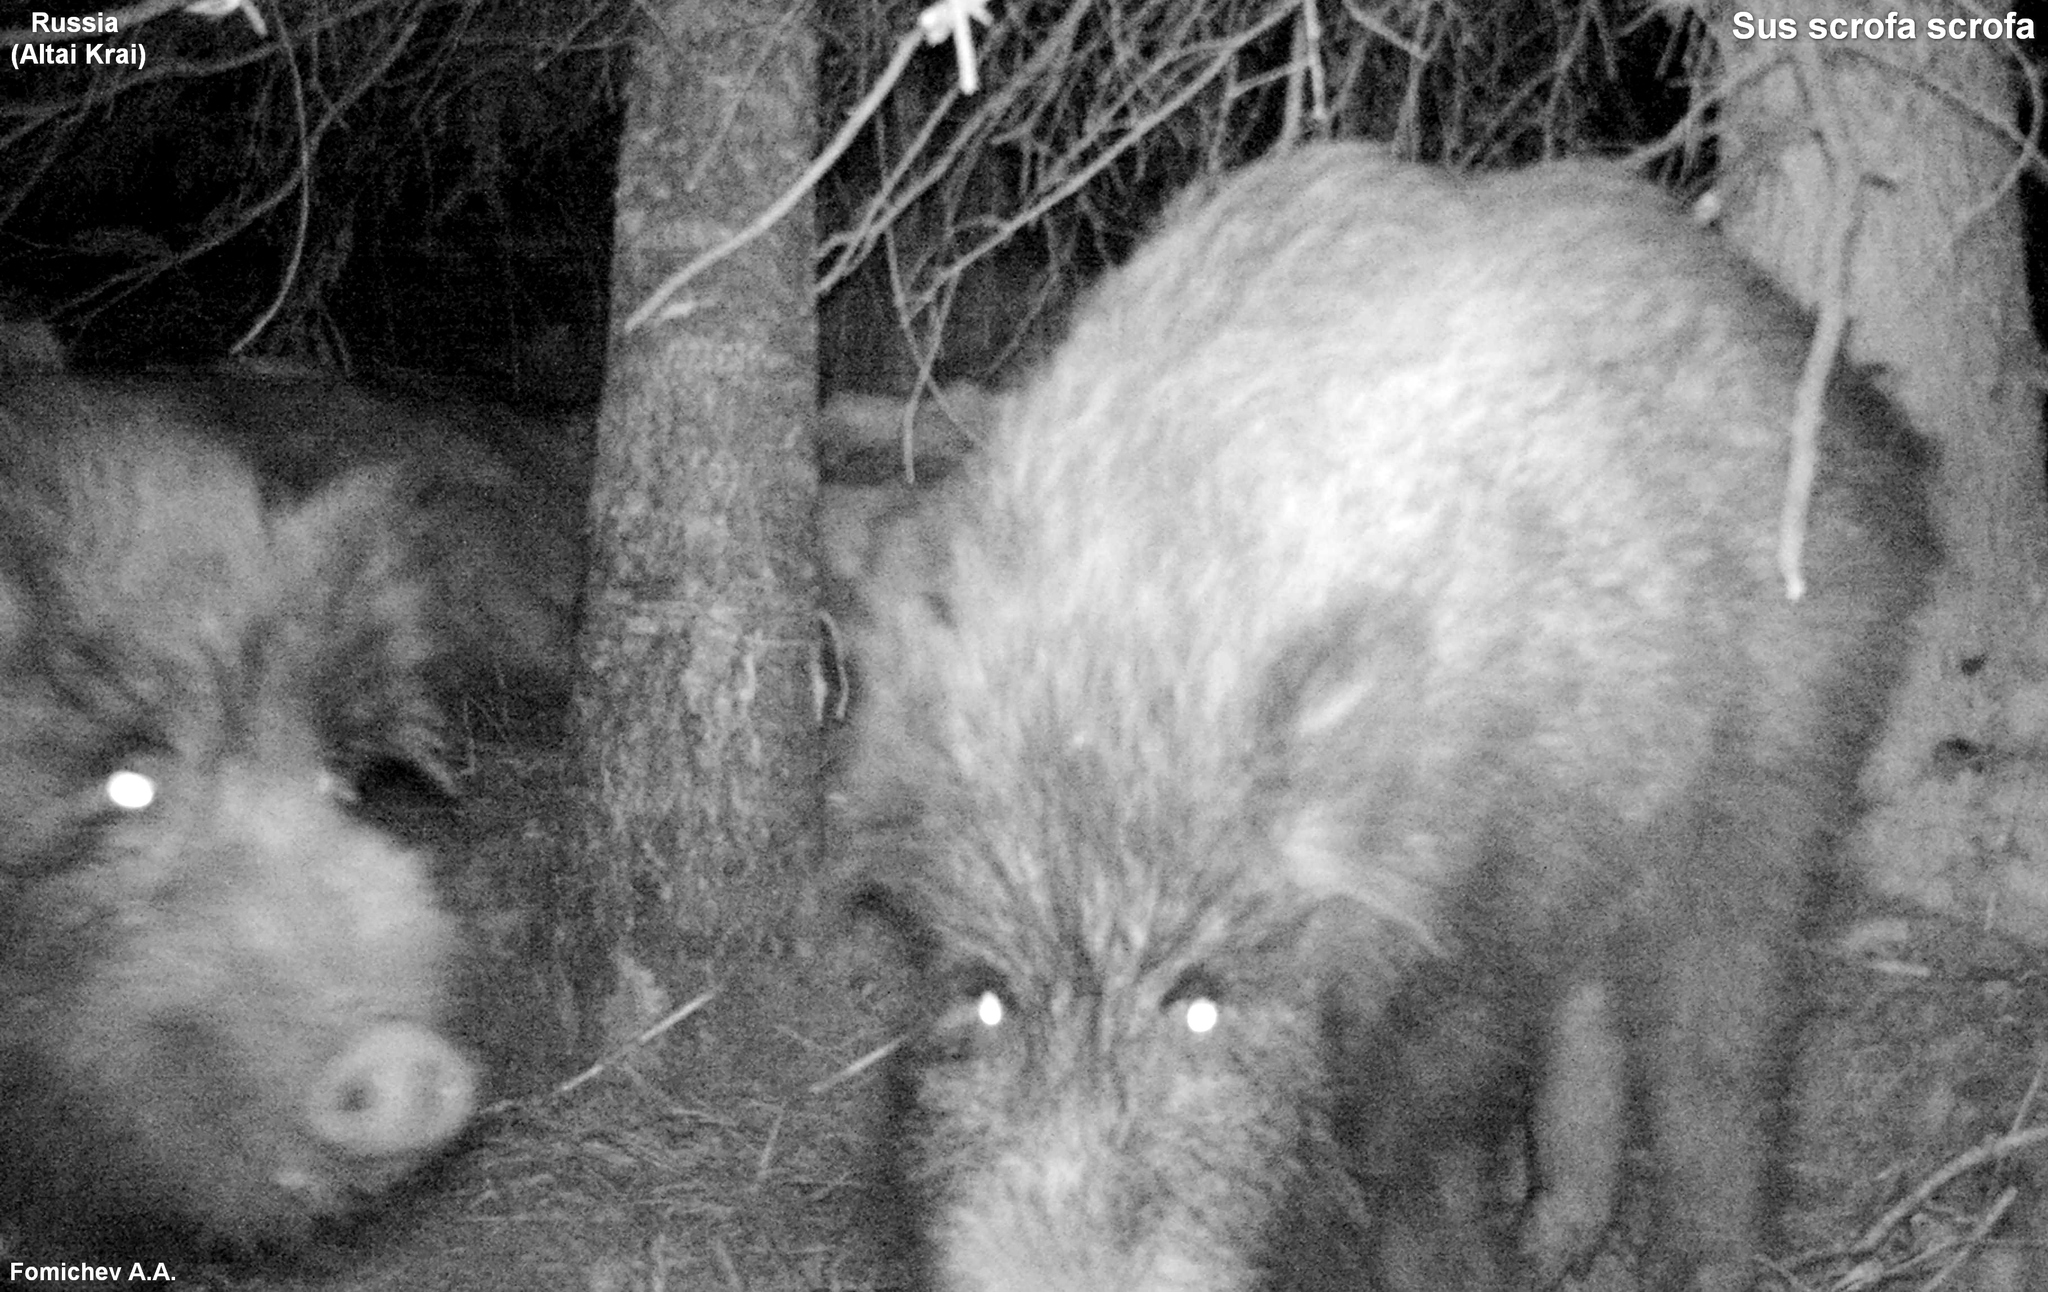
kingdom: Animalia
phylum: Chordata
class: Mammalia
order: Artiodactyla
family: Suidae
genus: Sus
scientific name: Sus scrofa
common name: Wild boar
